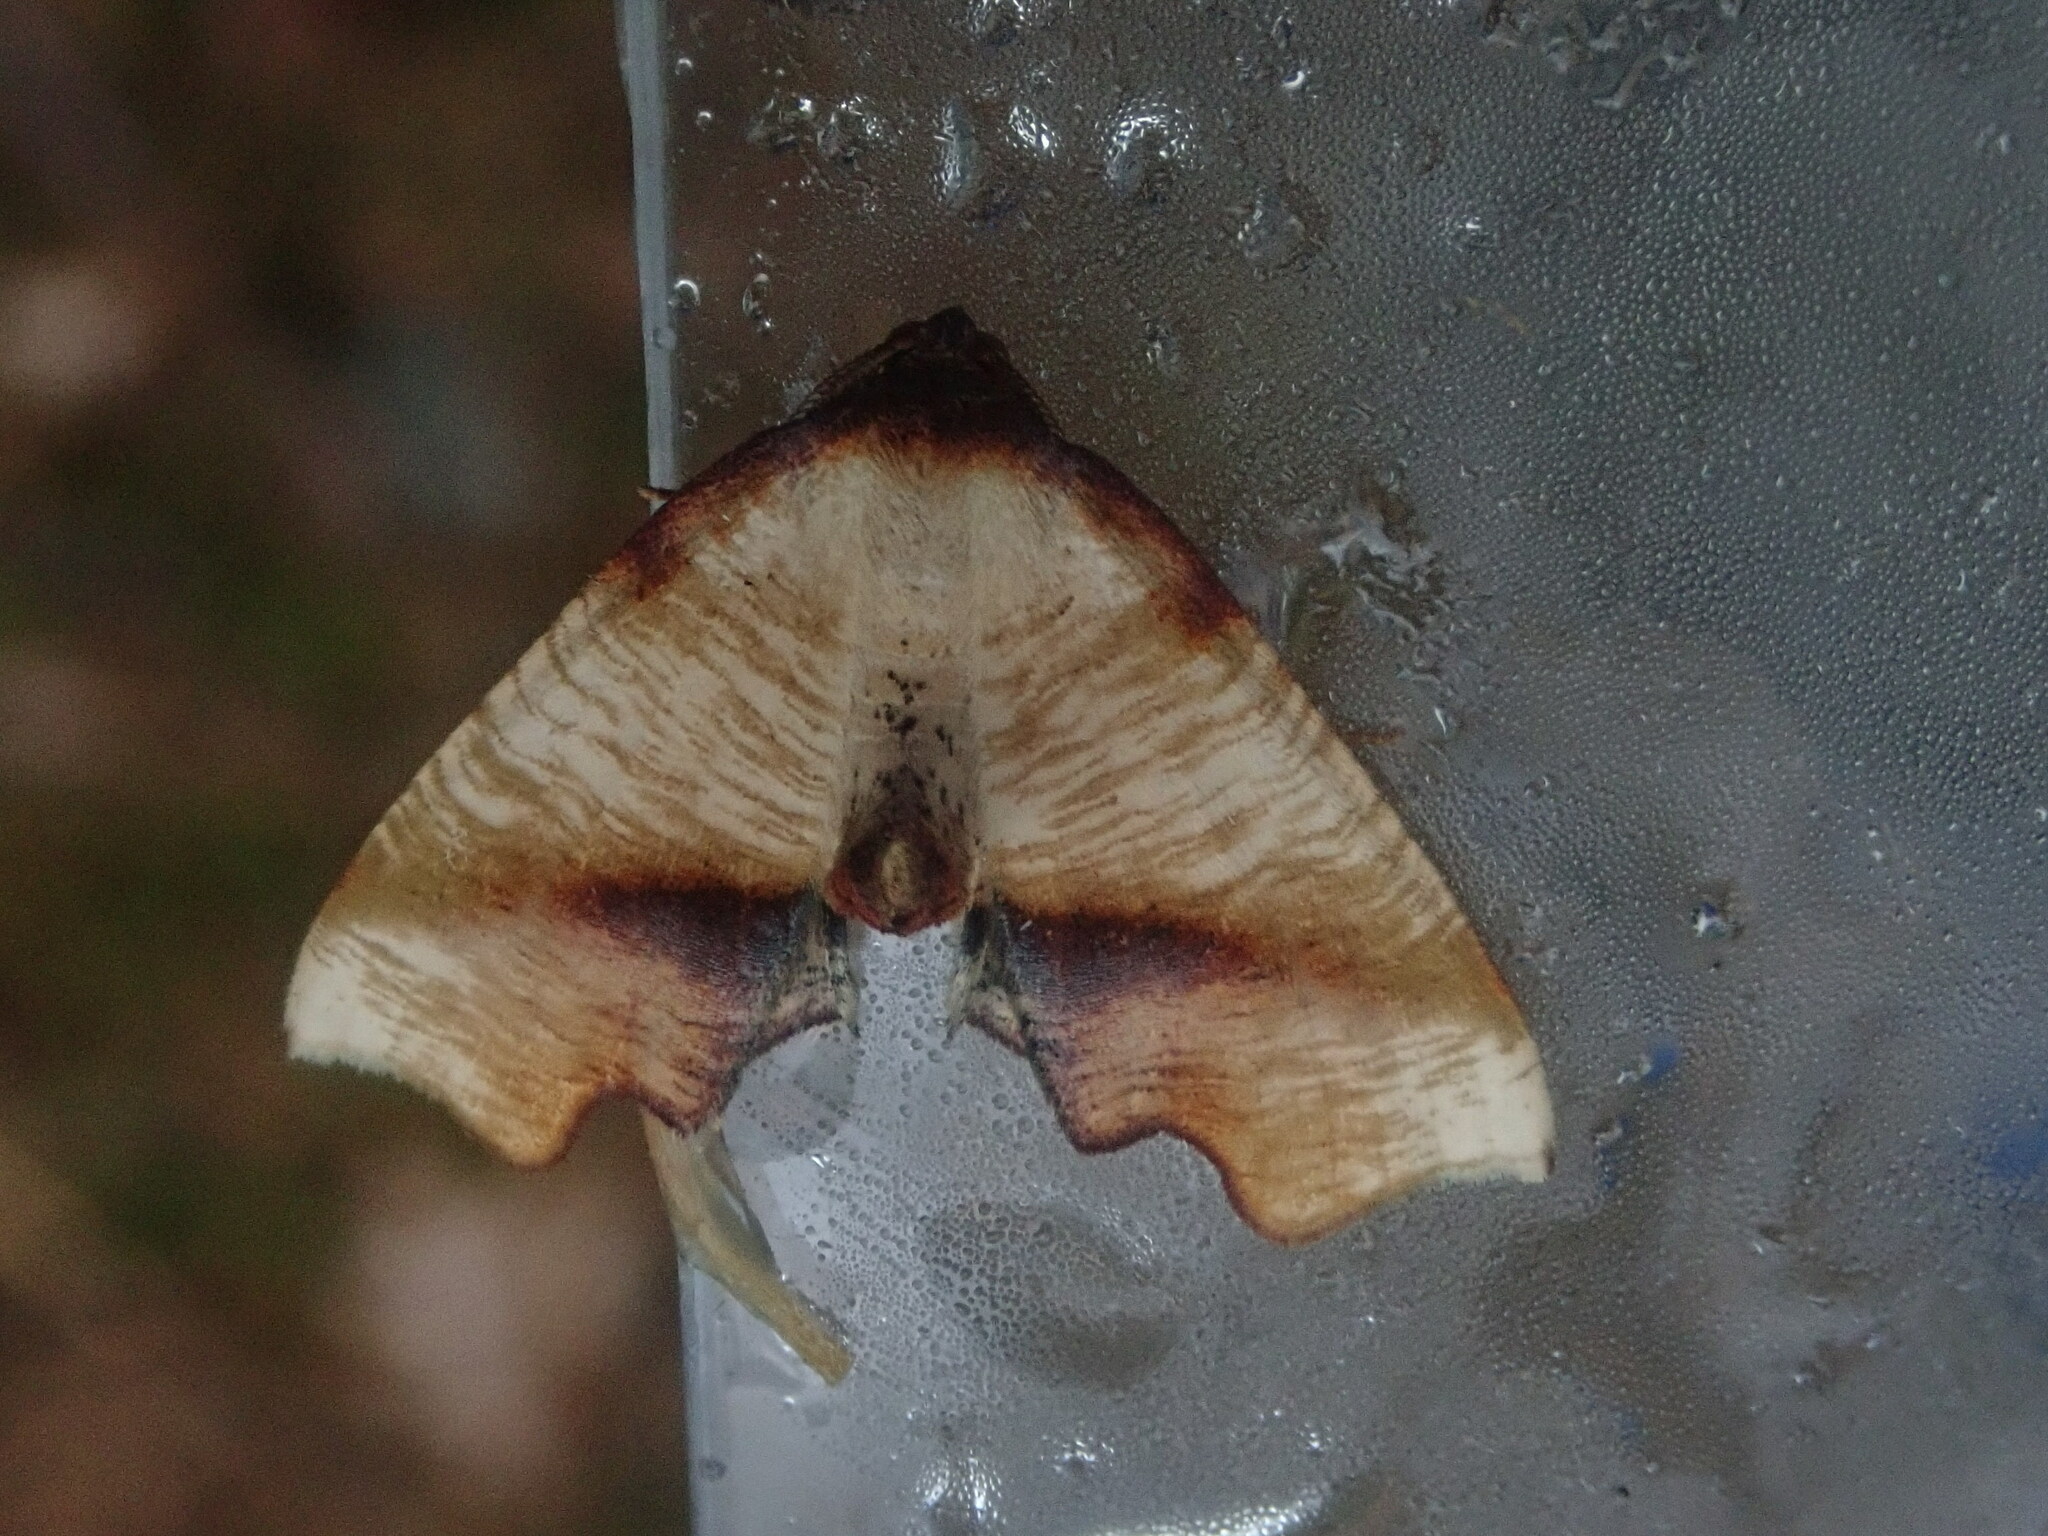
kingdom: Animalia
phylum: Arthropoda
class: Insecta
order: Lepidoptera
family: Geometridae
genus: Plagodis
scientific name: Plagodis fervidaria
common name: Fervid plagodis
